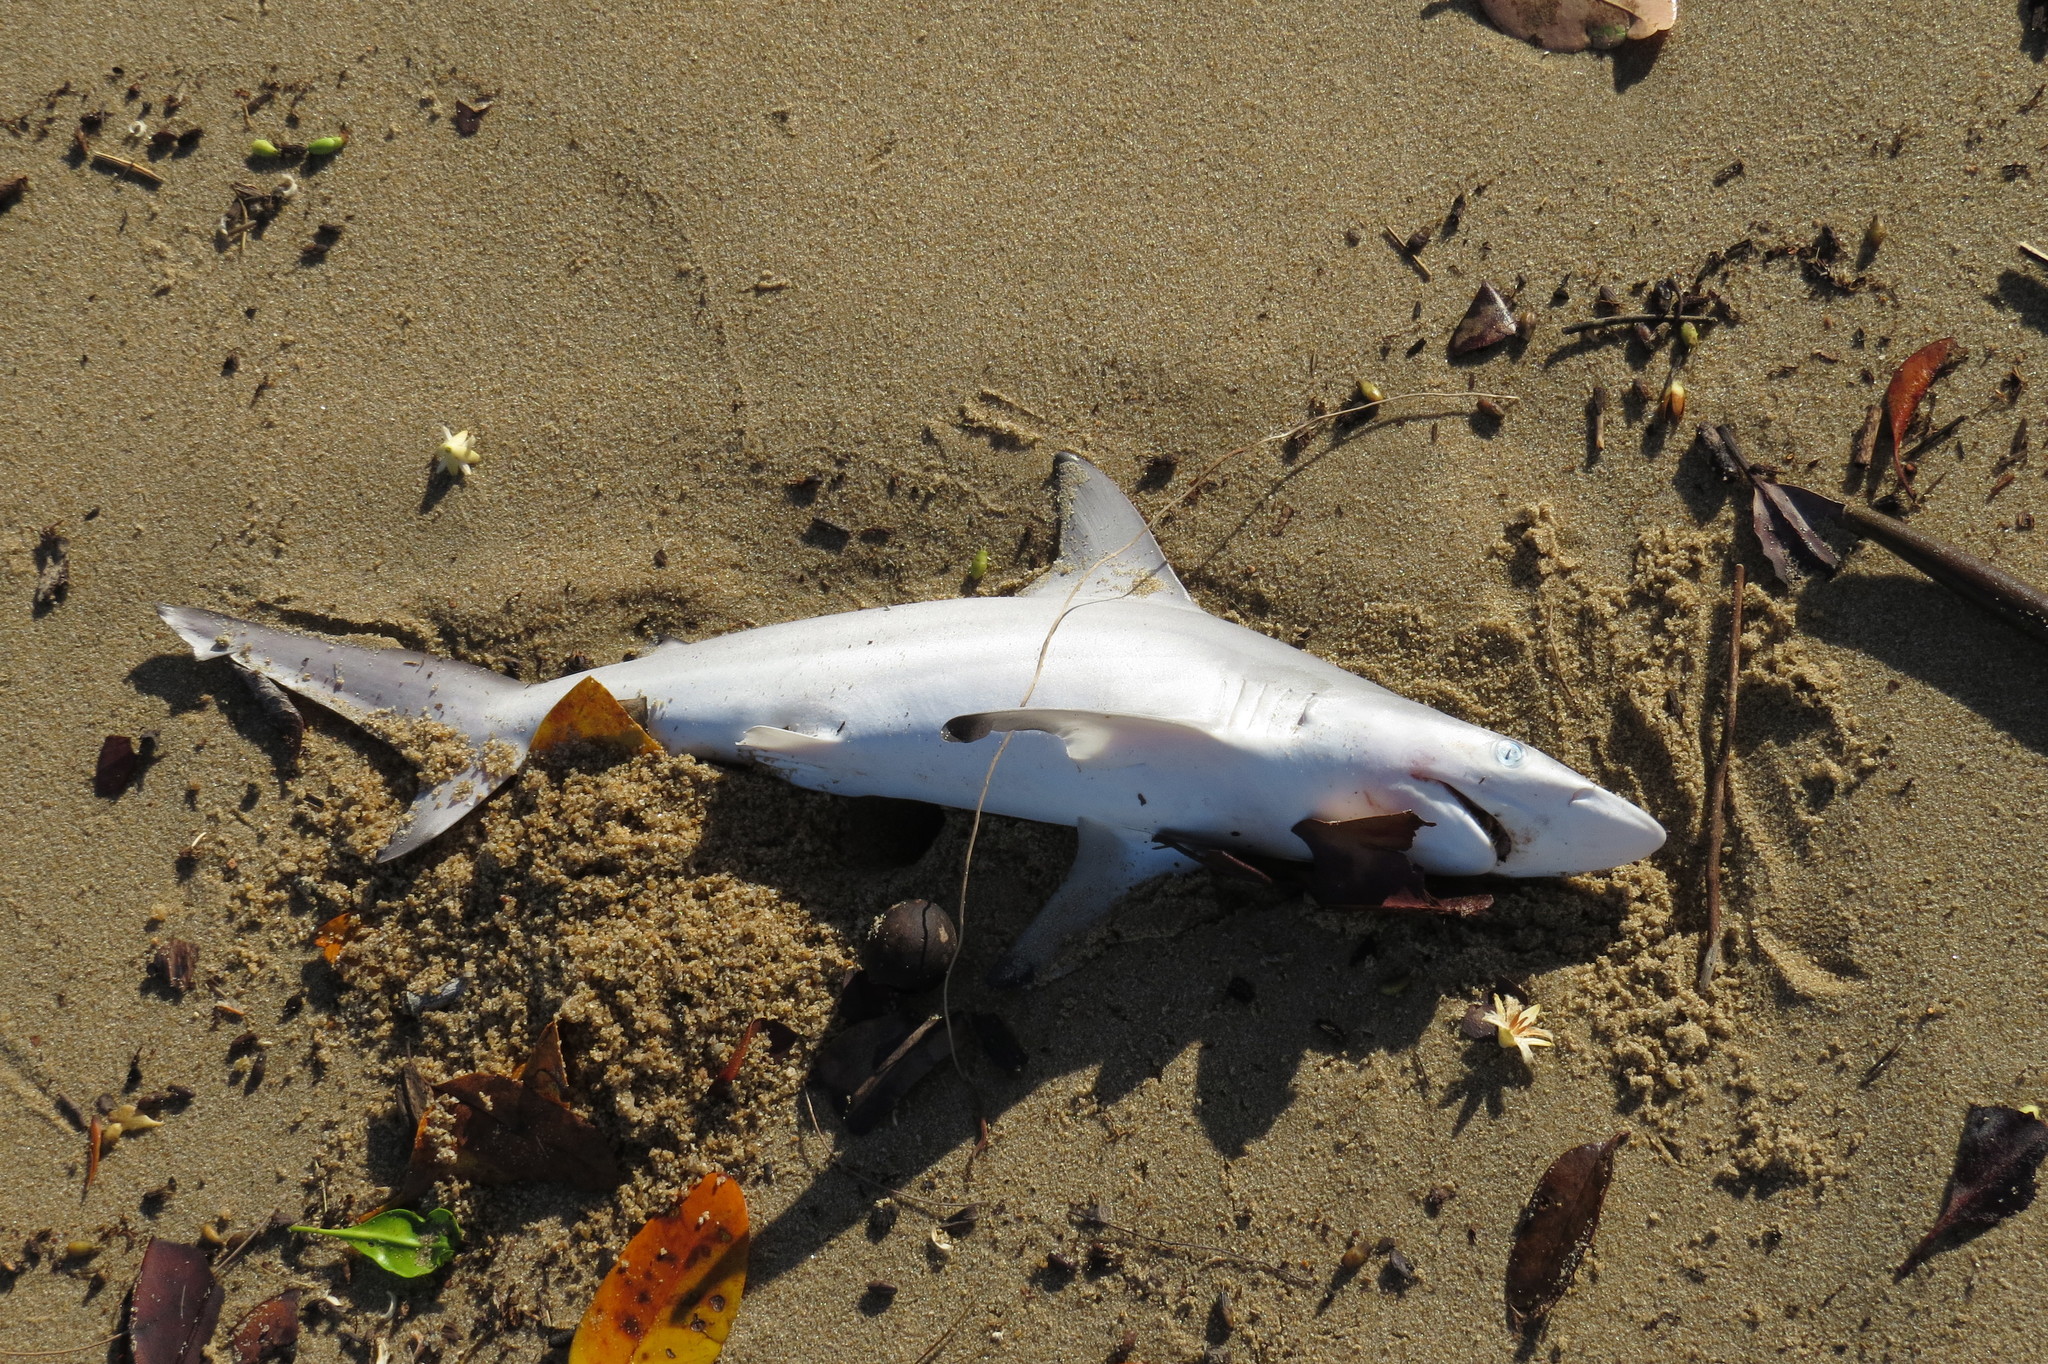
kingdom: Animalia
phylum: Chordata
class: Elasmobranchii
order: Carcharhiniformes
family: Carcharhinidae
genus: Carcharhinus
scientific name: Carcharhinus tilstoni
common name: Australian blacktip shark
